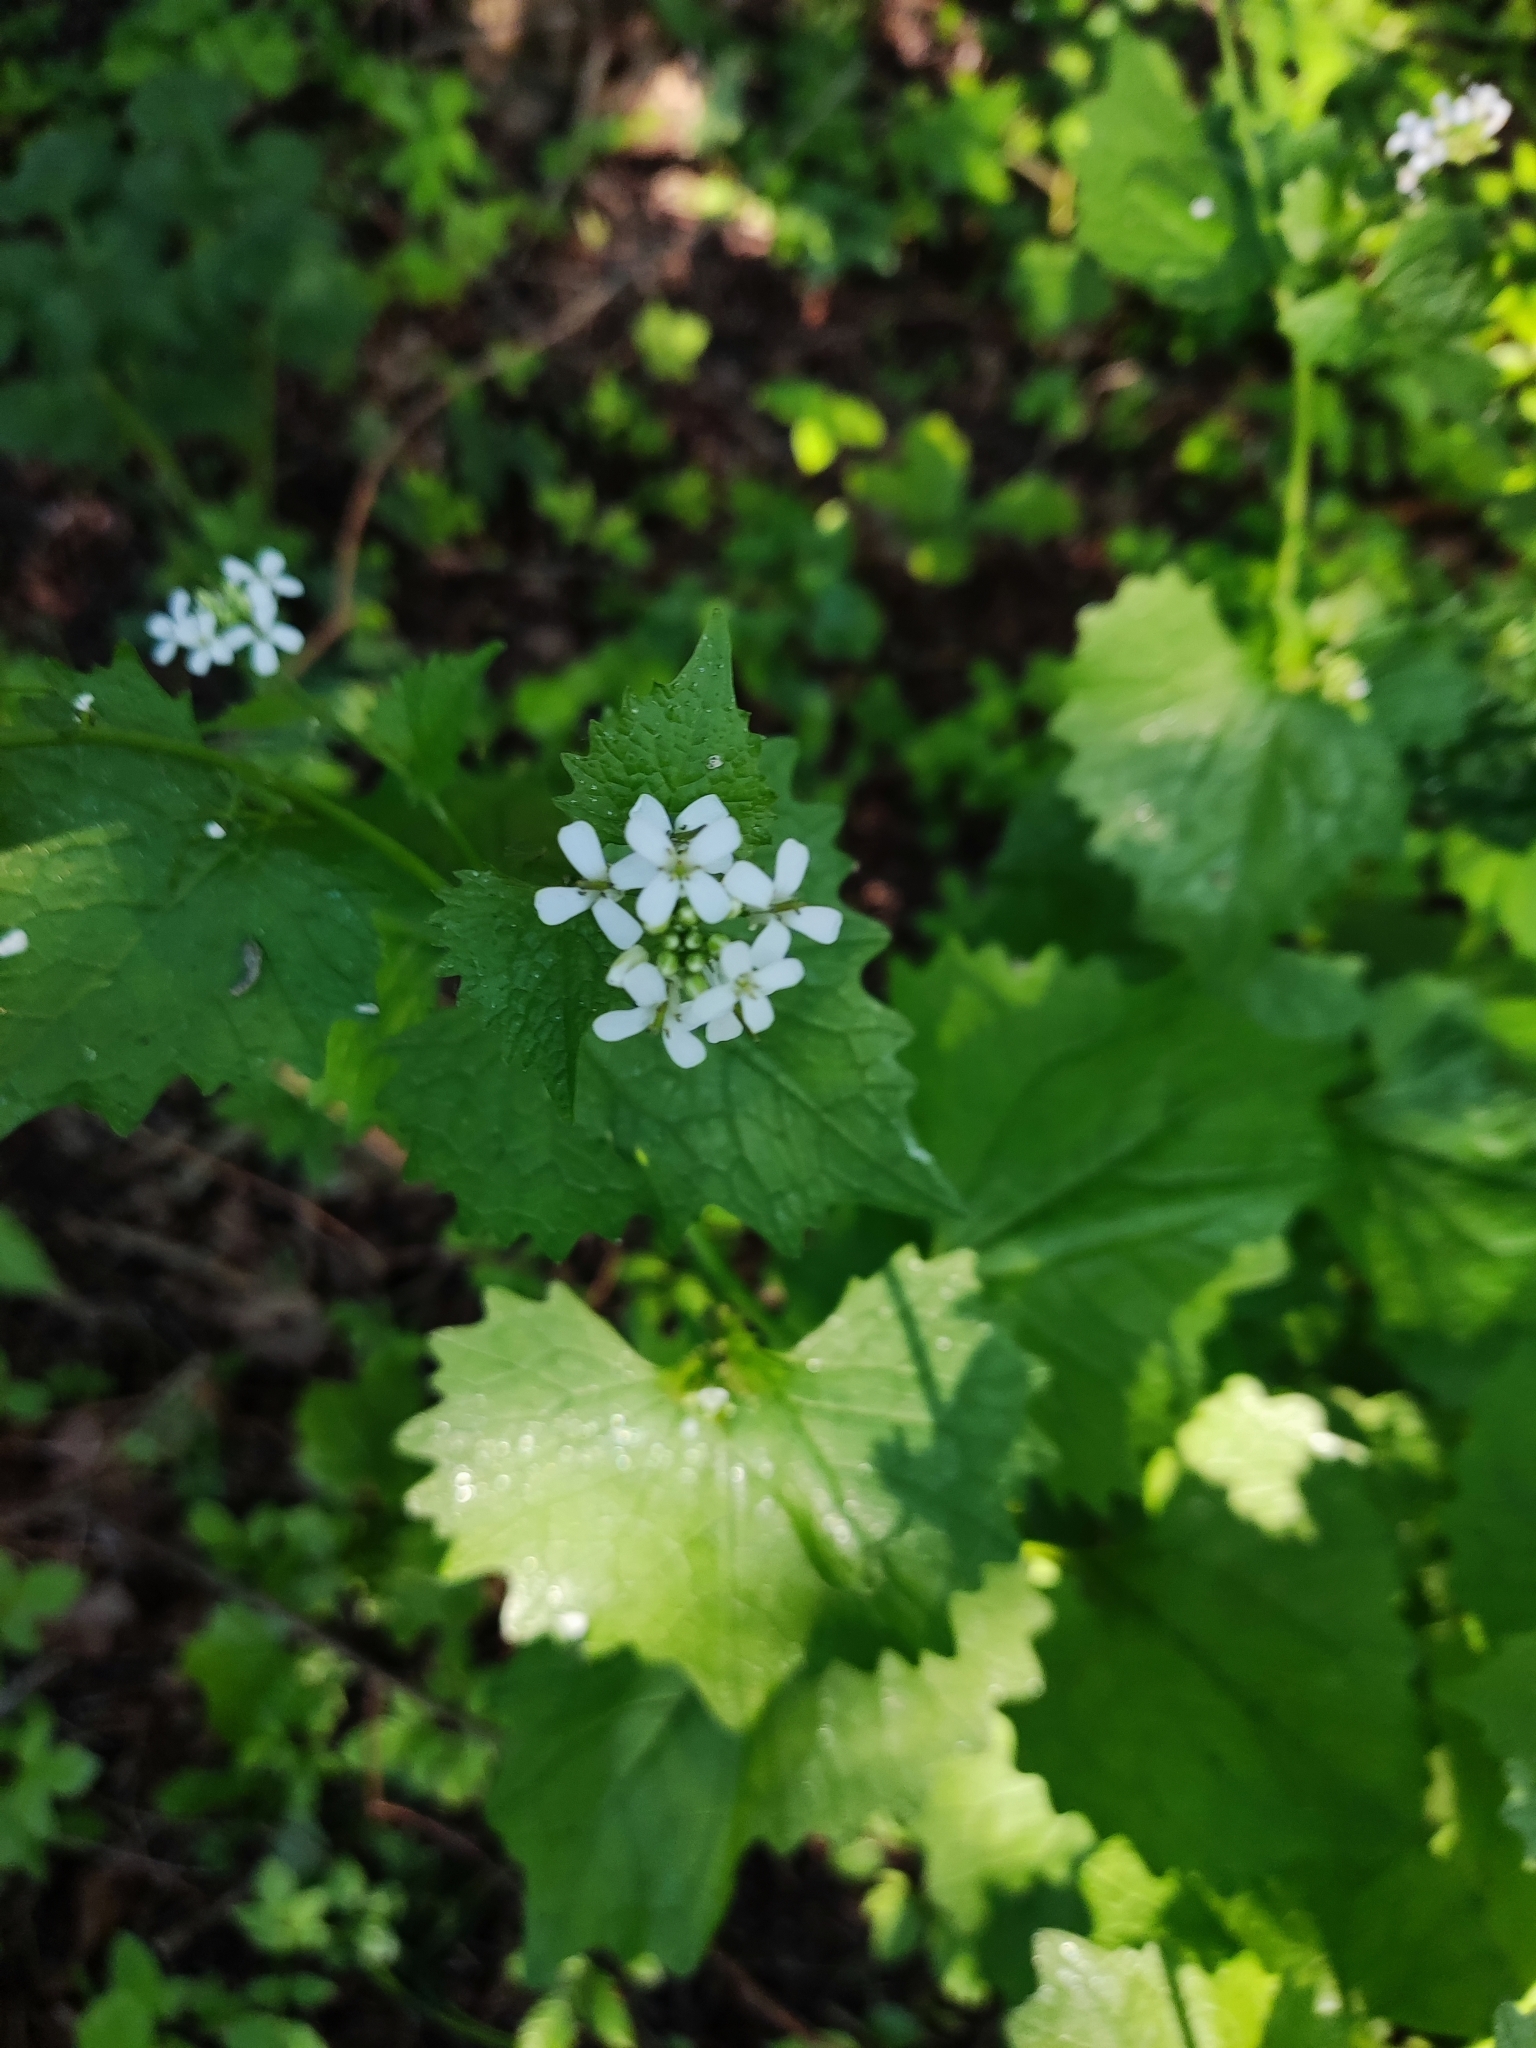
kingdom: Plantae
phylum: Tracheophyta
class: Magnoliopsida
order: Brassicales
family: Brassicaceae
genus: Alliaria
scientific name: Alliaria petiolata
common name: Garlic mustard
